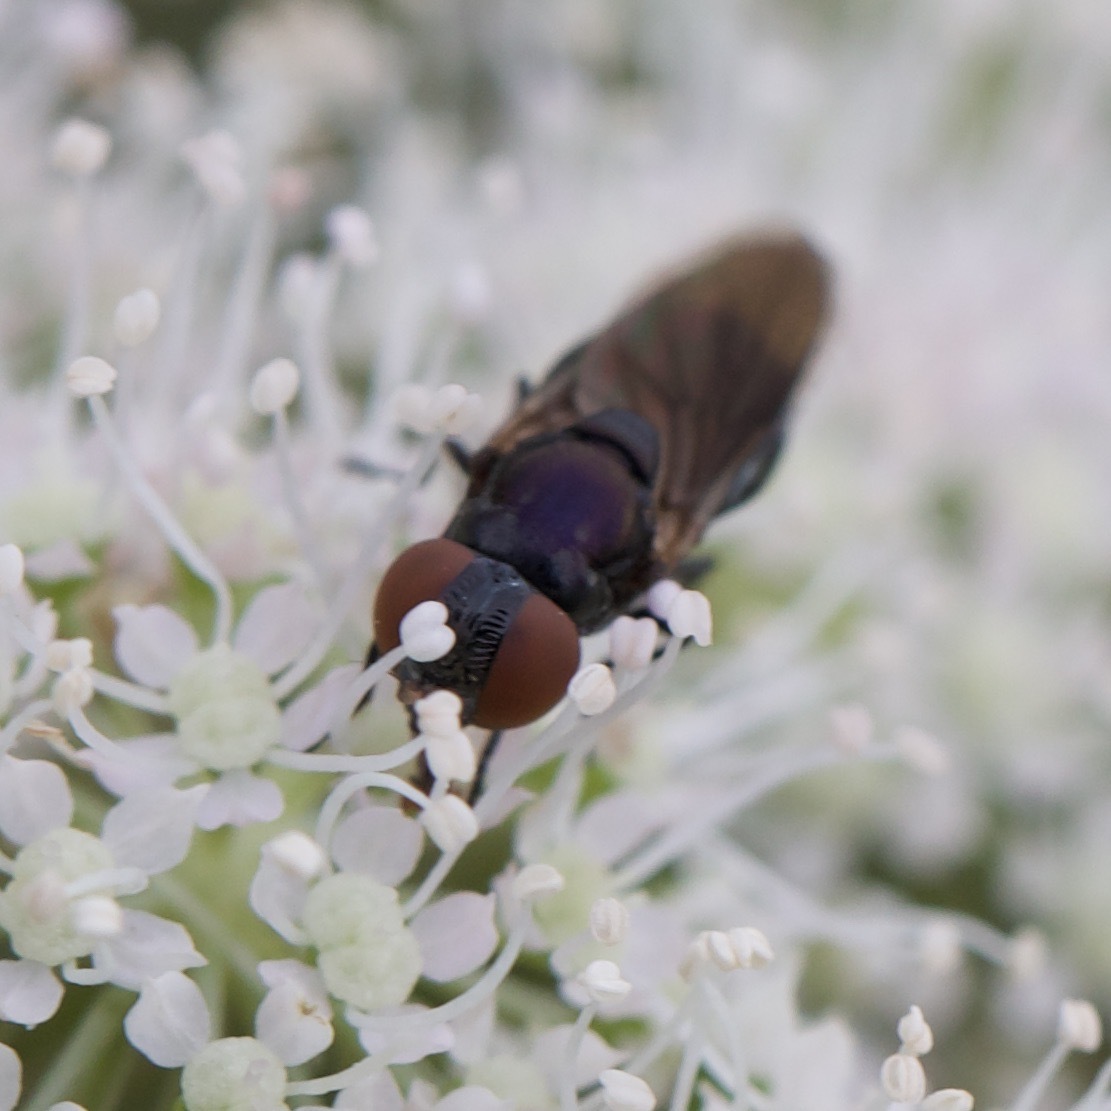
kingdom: Animalia
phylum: Arthropoda
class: Insecta
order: Diptera
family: Syrphidae
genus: Chrysogaster
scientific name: Chrysogaster solstitialis
